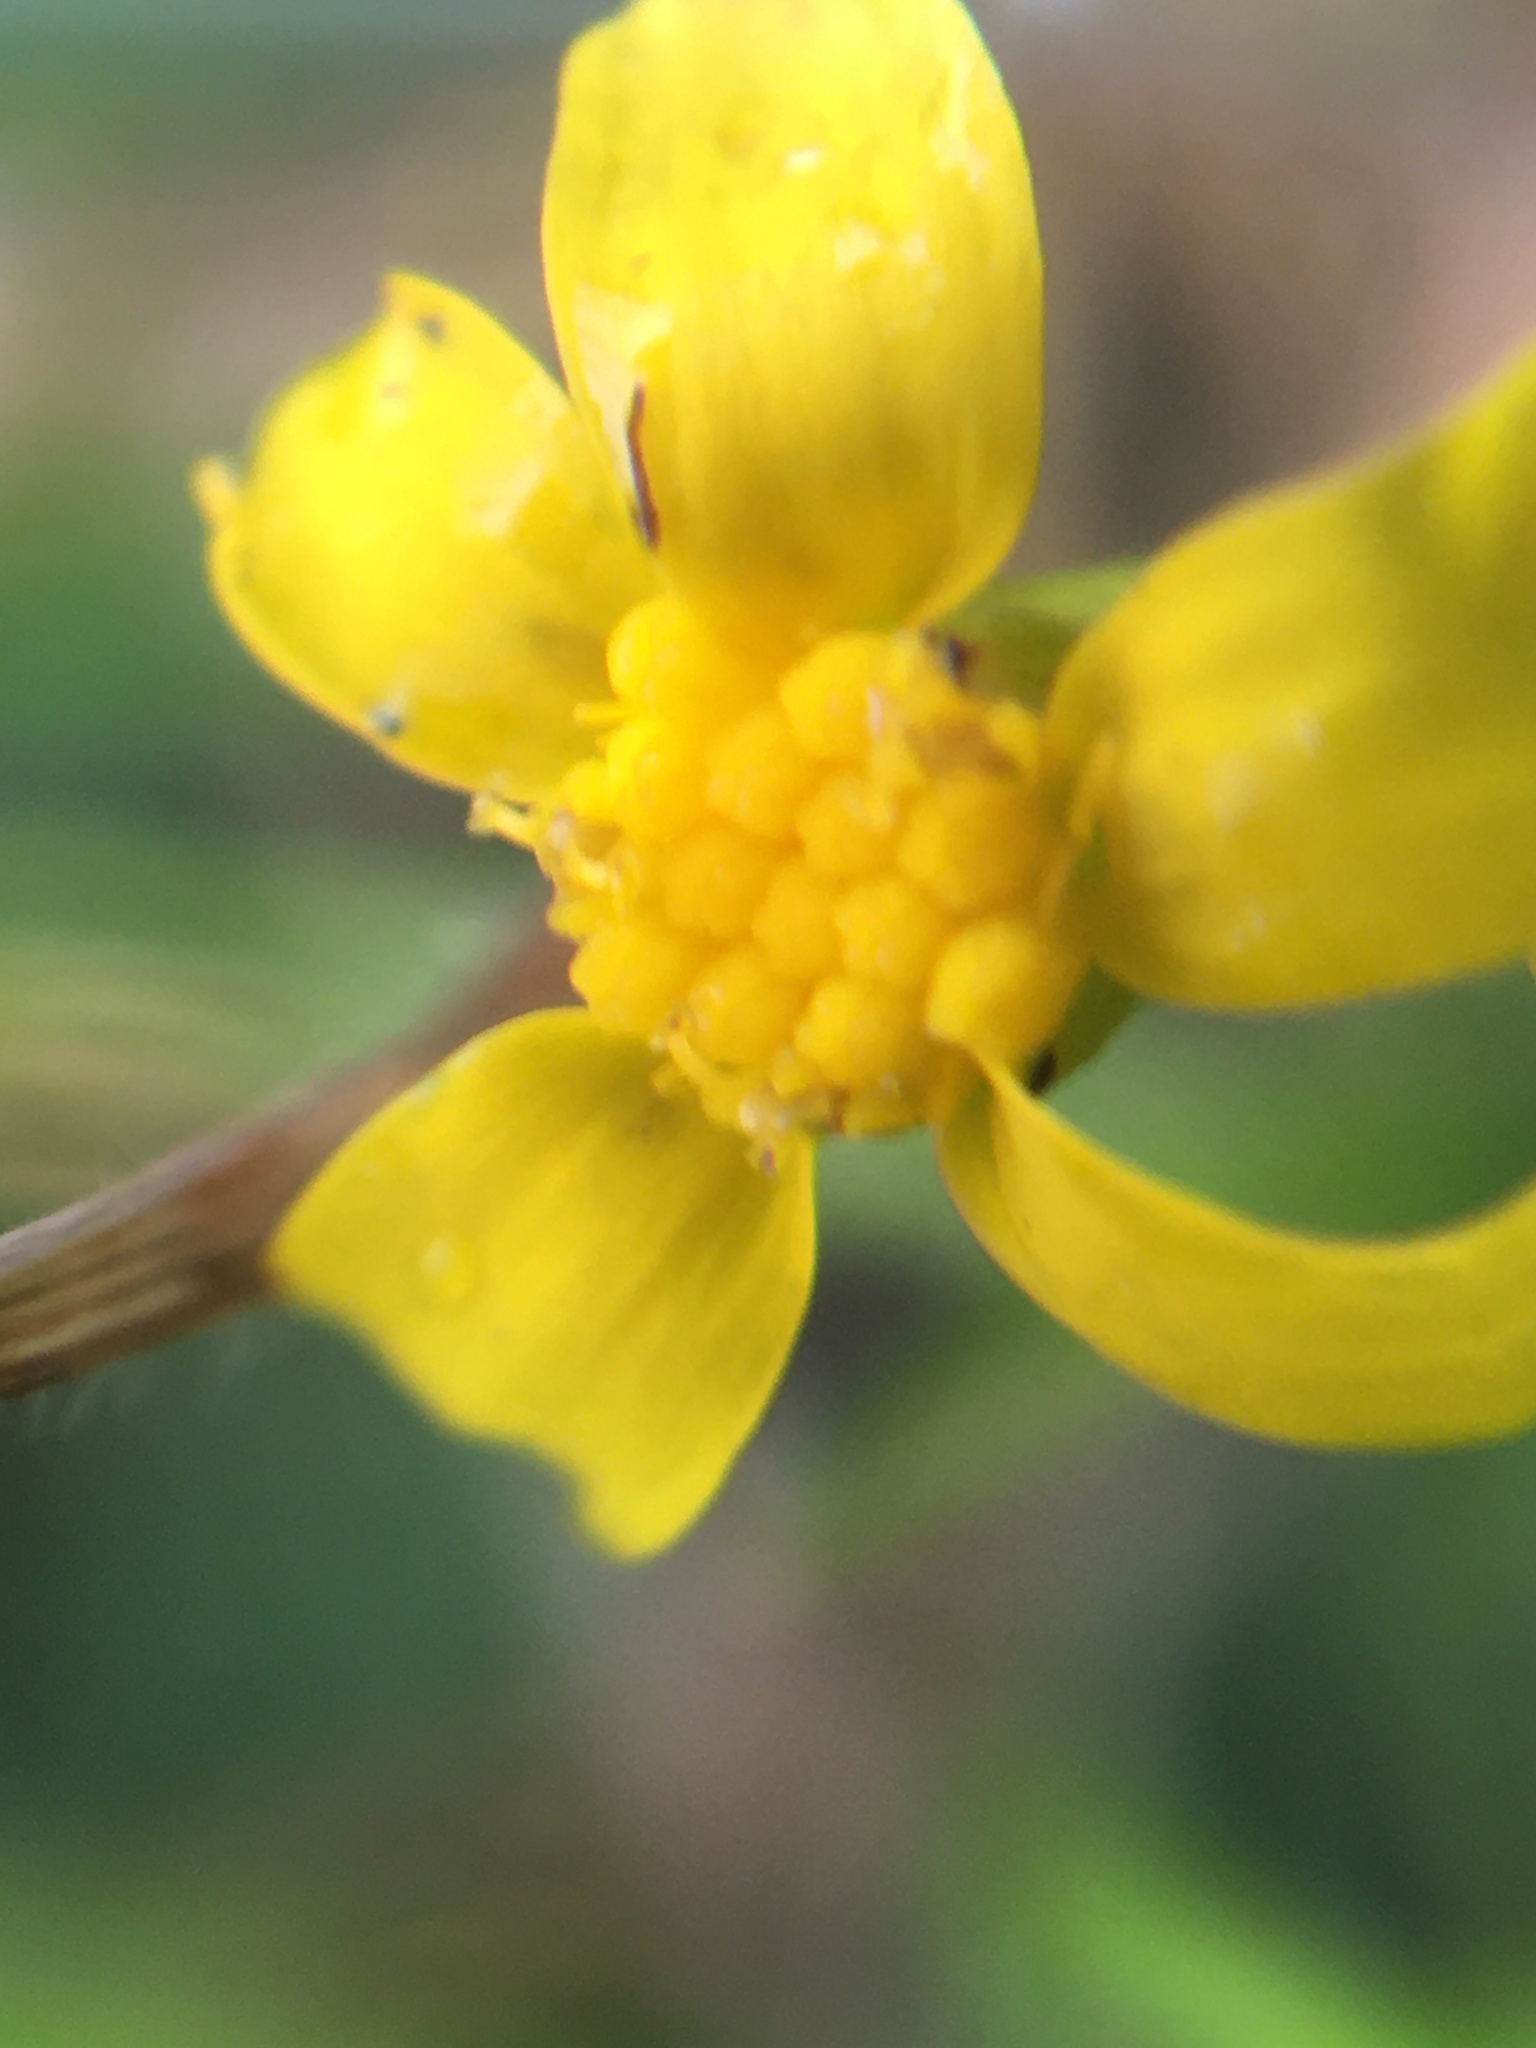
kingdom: Plantae
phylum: Tracheophyta
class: Magnoliopsida
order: Asterales
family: Asteraceae
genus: Senecio
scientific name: Senecio littoreus
